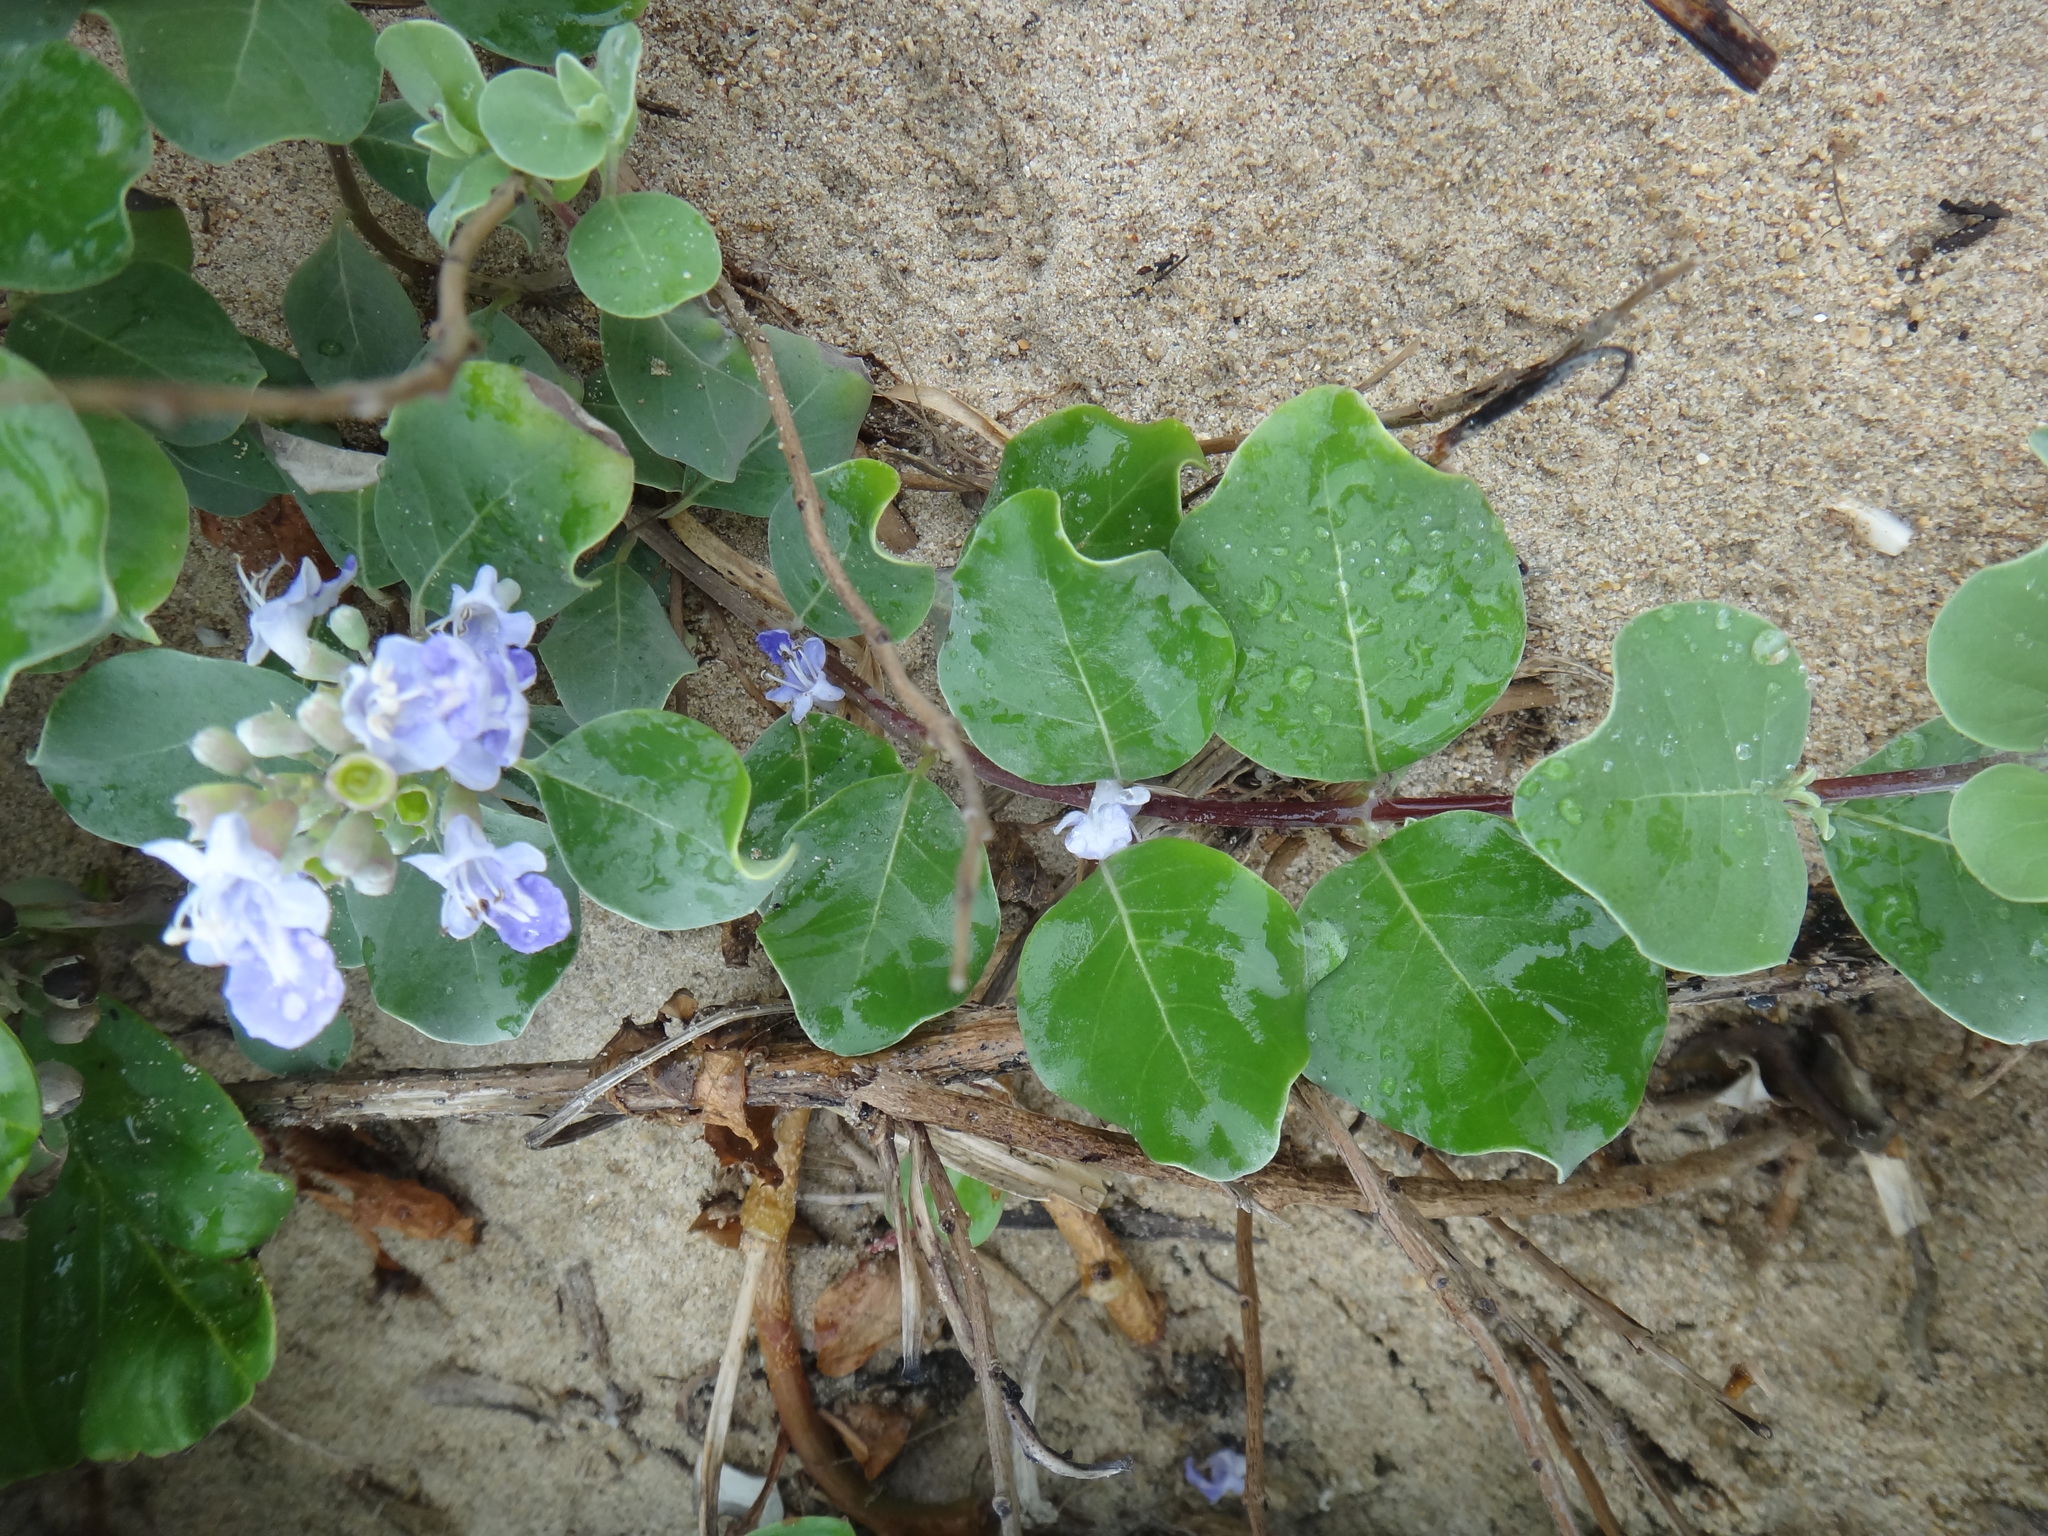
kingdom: Plantae
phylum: Tracheophyta
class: Magnoliopsida
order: Lamiales
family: Lamiaceae
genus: Vitex
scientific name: Vitex rotundifolia
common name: Beach vitex
